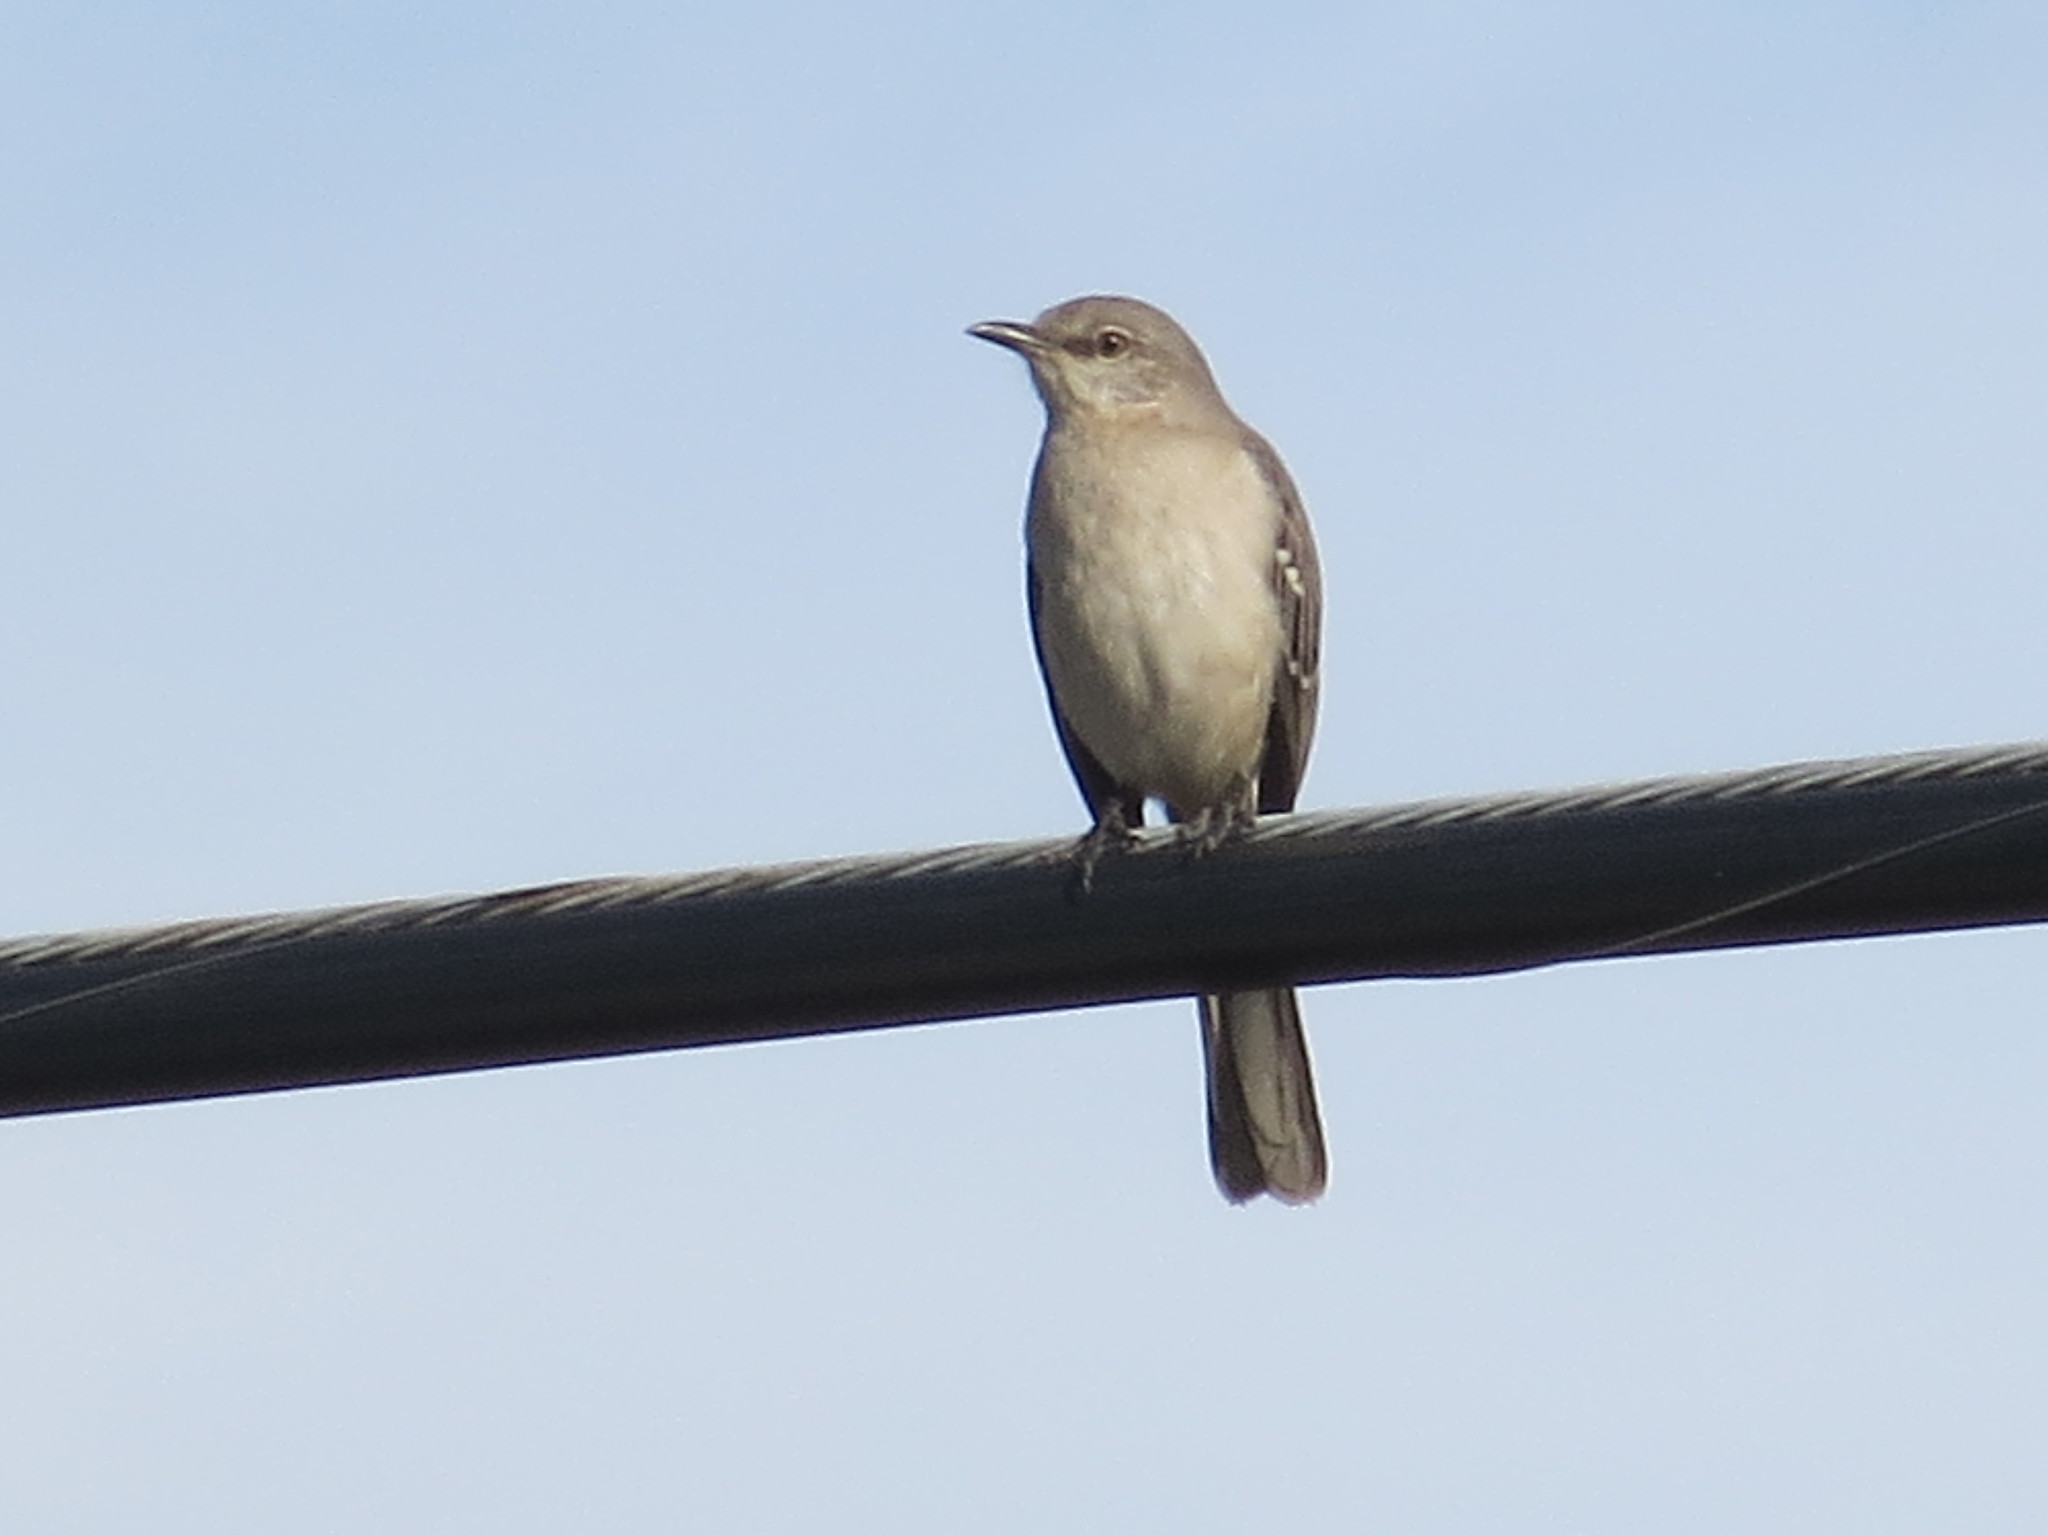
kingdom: Animalia
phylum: Chordata
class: Aves
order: Passeriformes
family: Mimidae
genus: Mimus
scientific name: Mimus polyglottos
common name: Northern mockingbird
